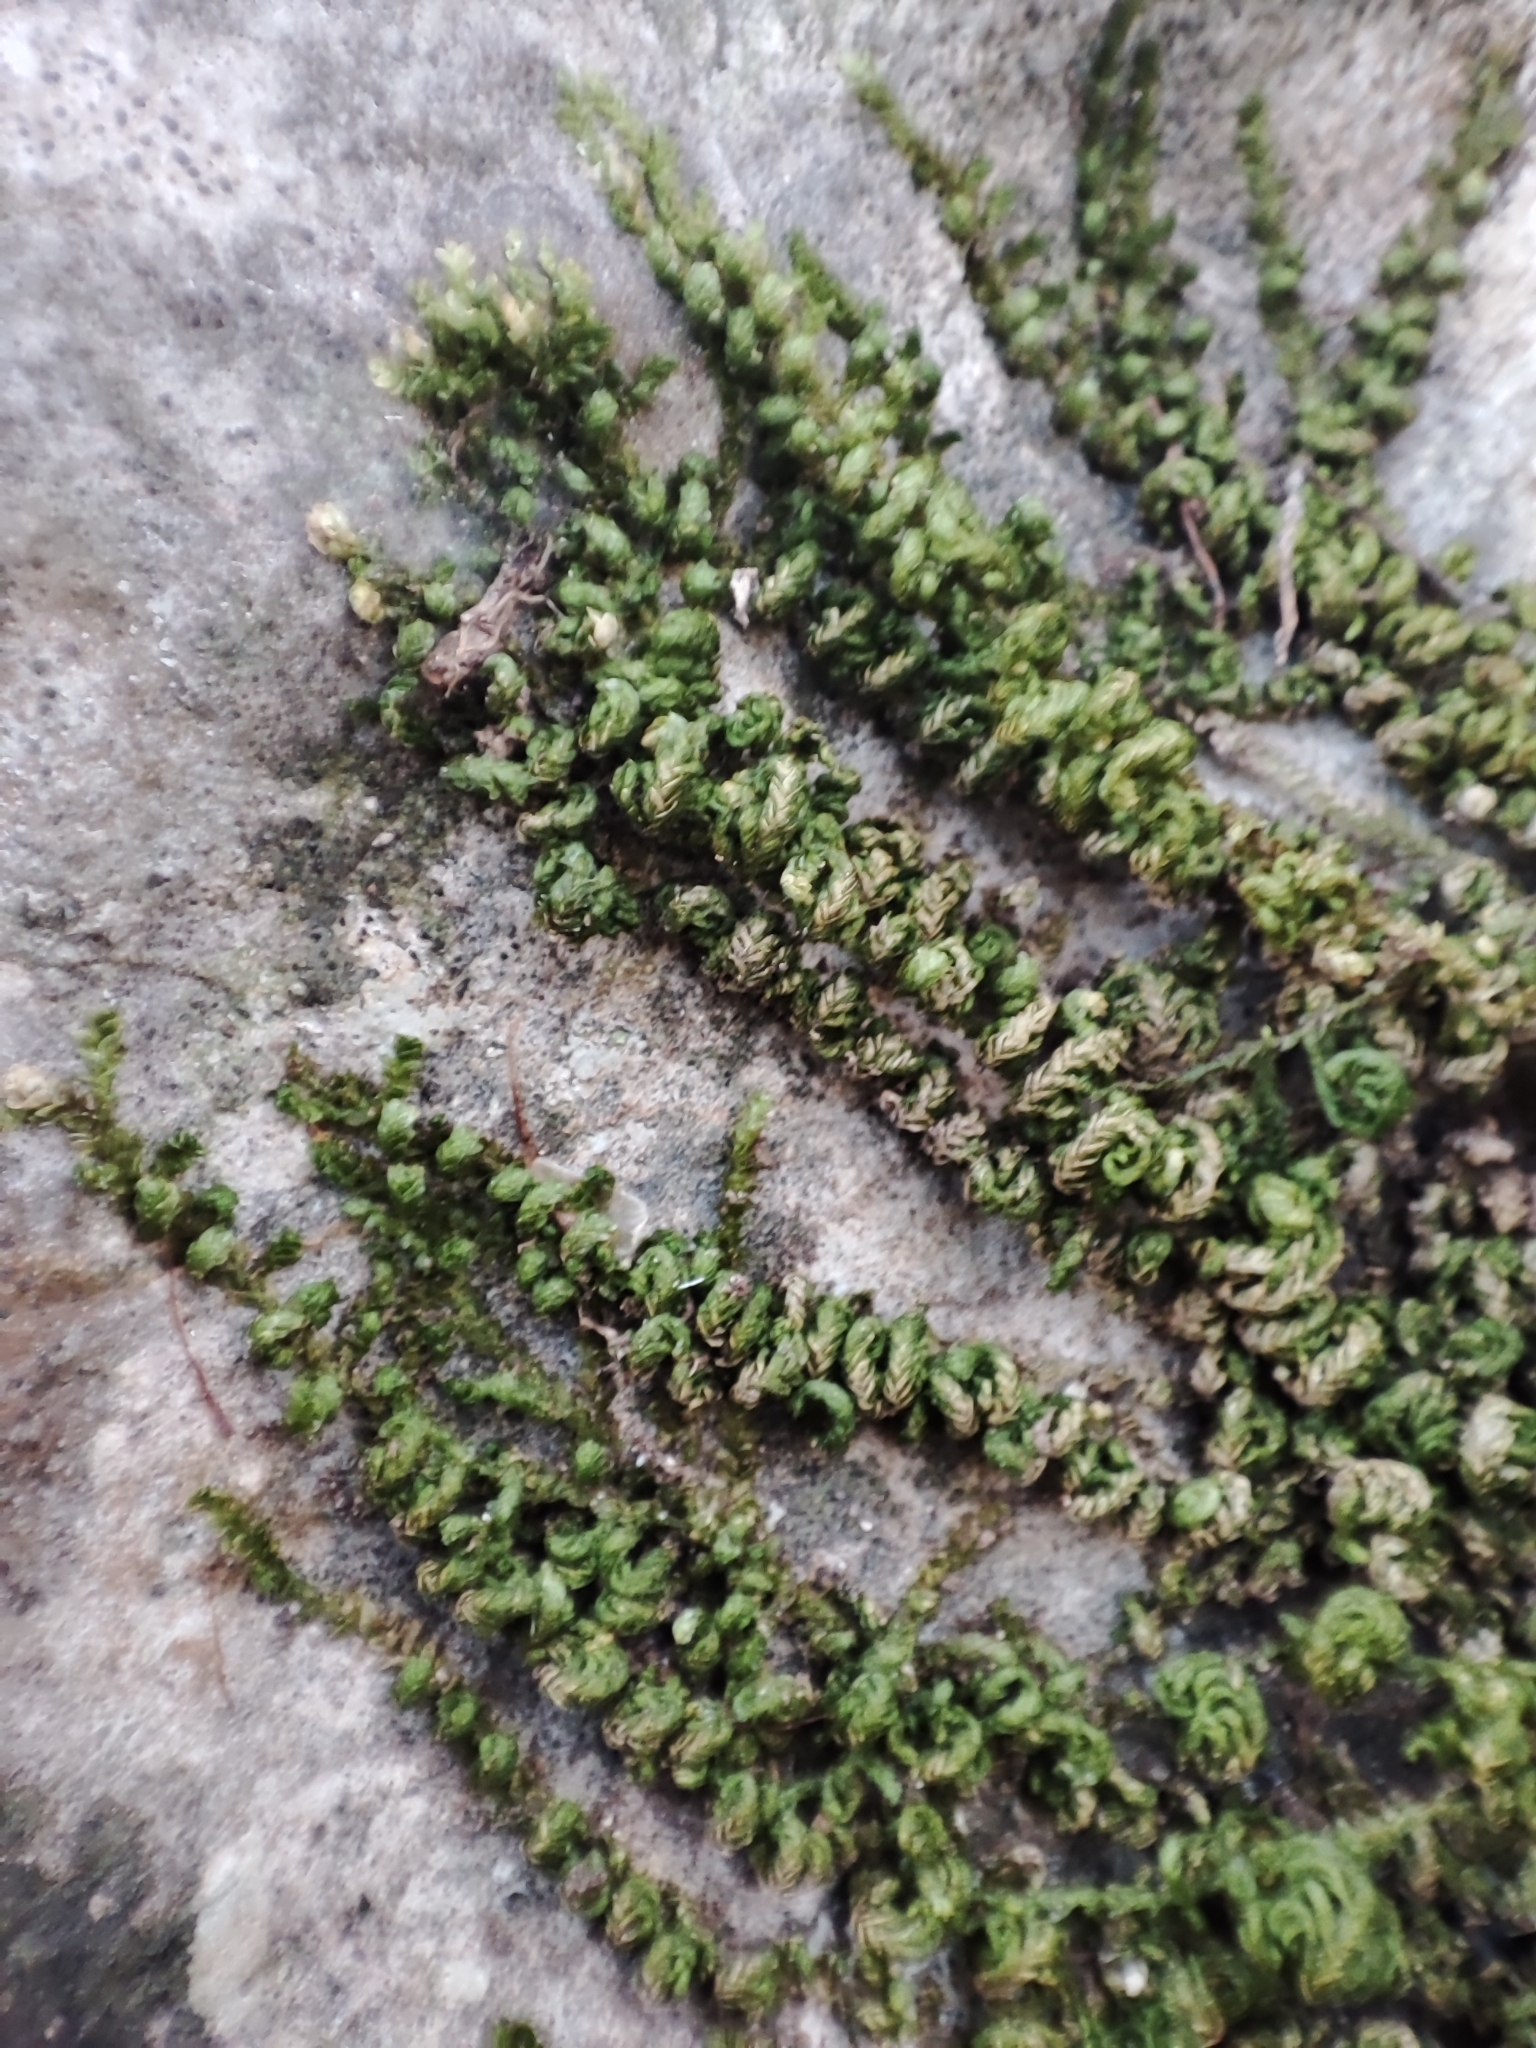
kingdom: Plantae
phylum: Bryophyta
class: Bryopsida
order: Hypnales
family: Neckeraceae
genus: Leptodon
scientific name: Leptodon smithii
